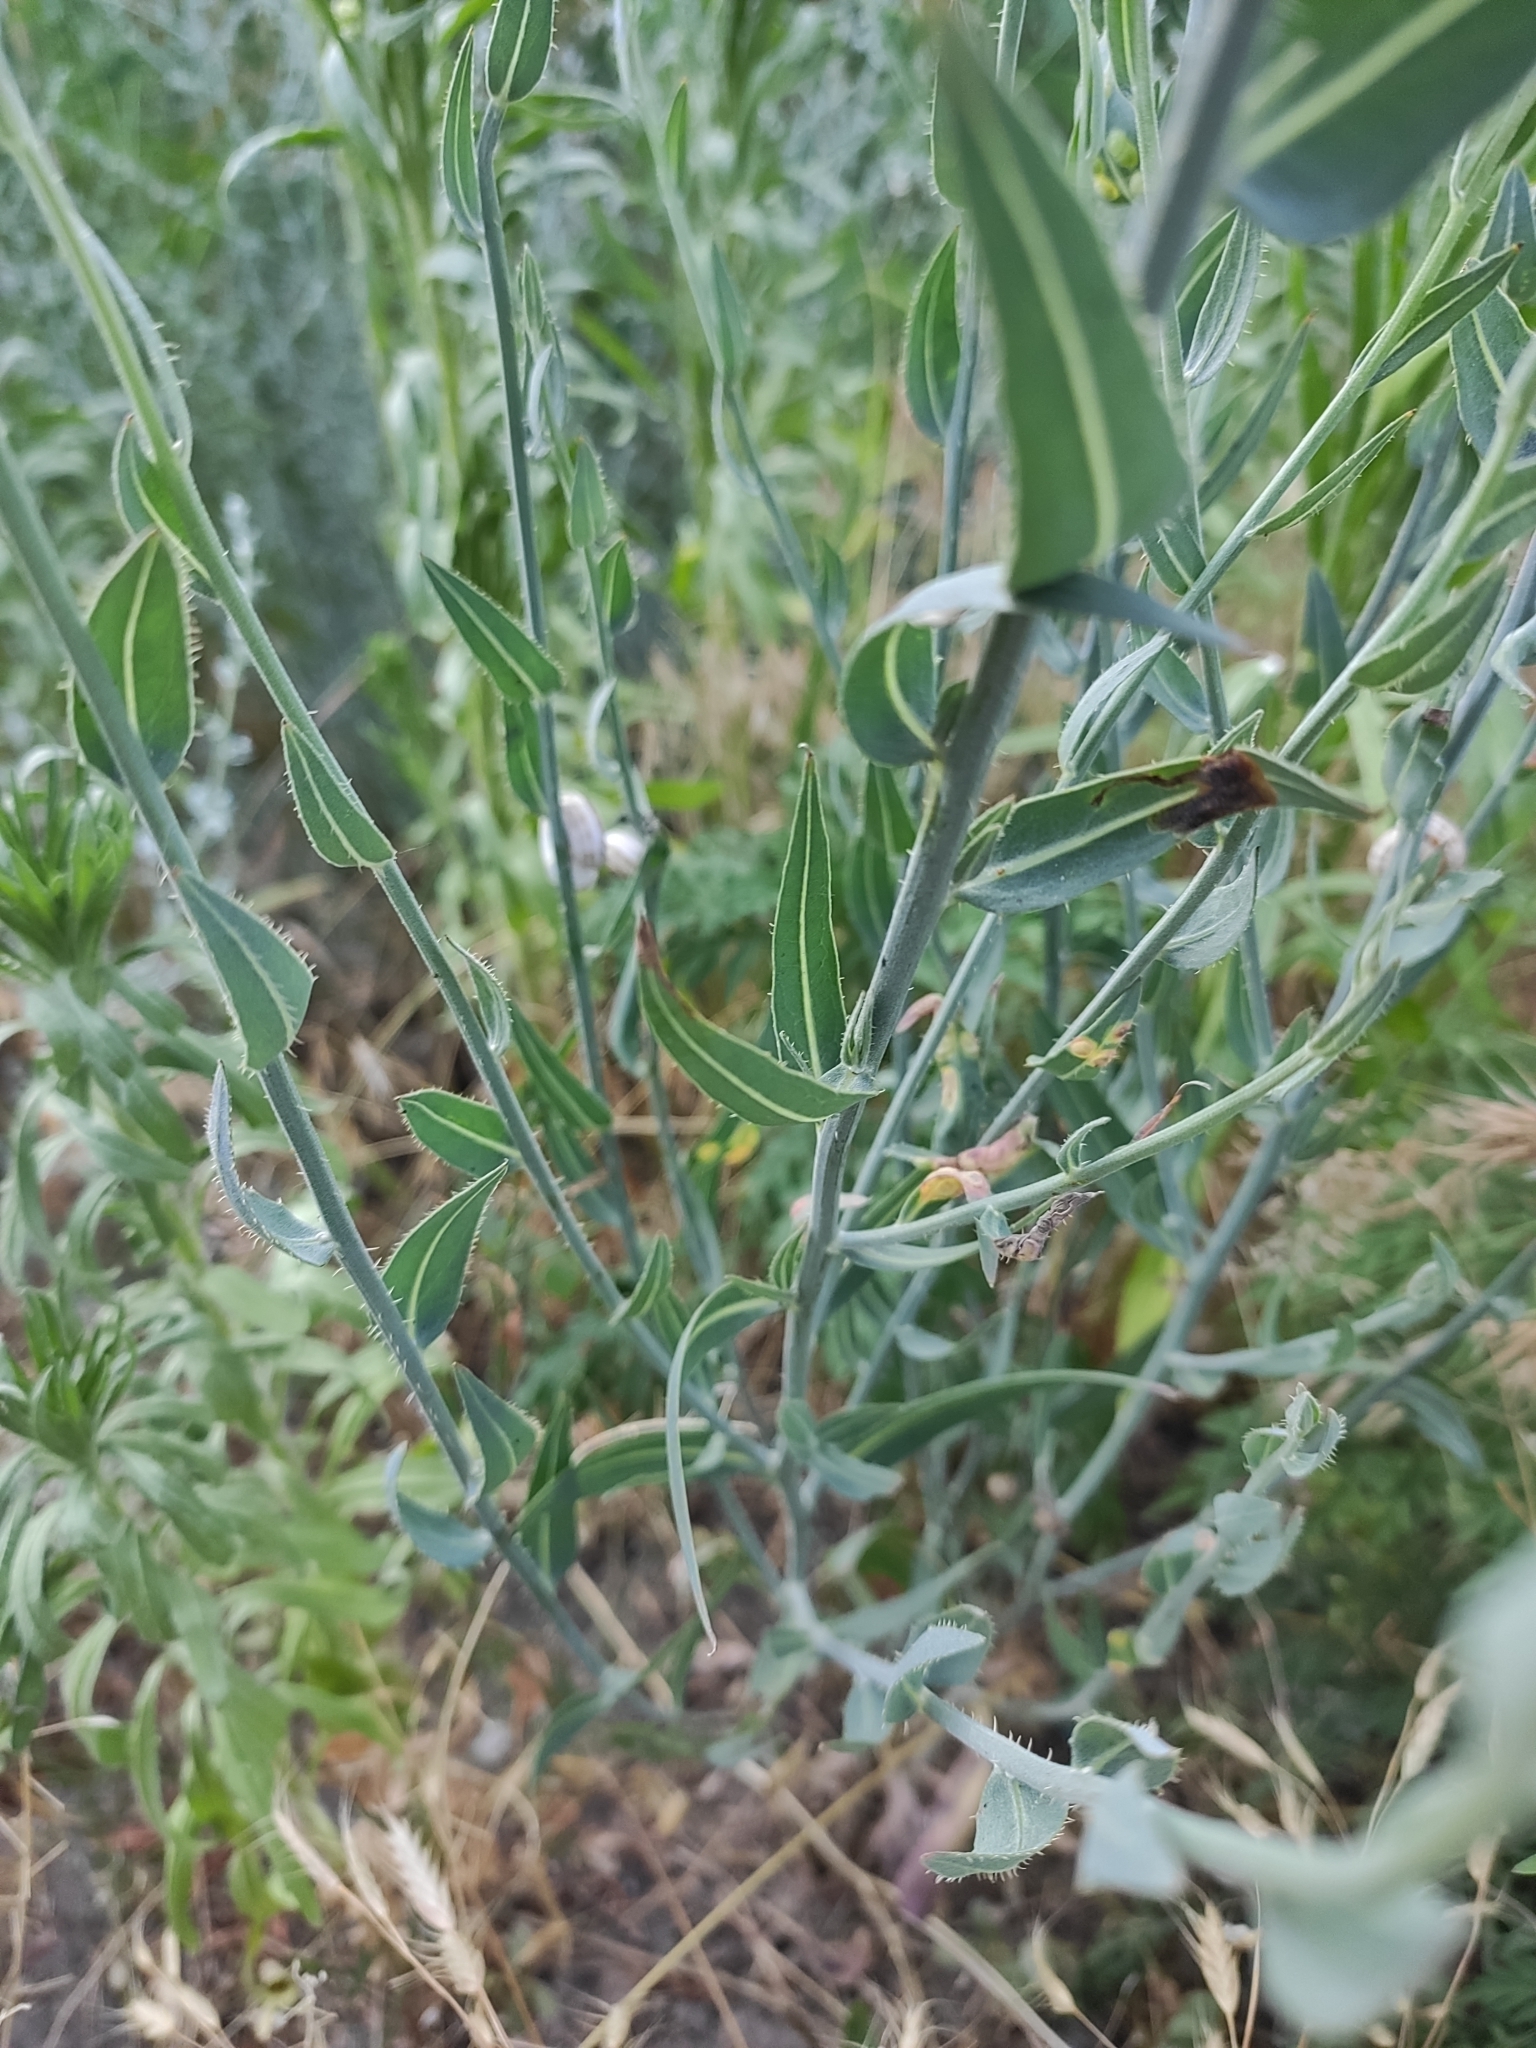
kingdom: Plantae
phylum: Tracheophyta
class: Magnoliopsida
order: Asterales
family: Asteraceae
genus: Chondrilla
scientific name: Chondrilla juncea
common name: Skeleton weed
